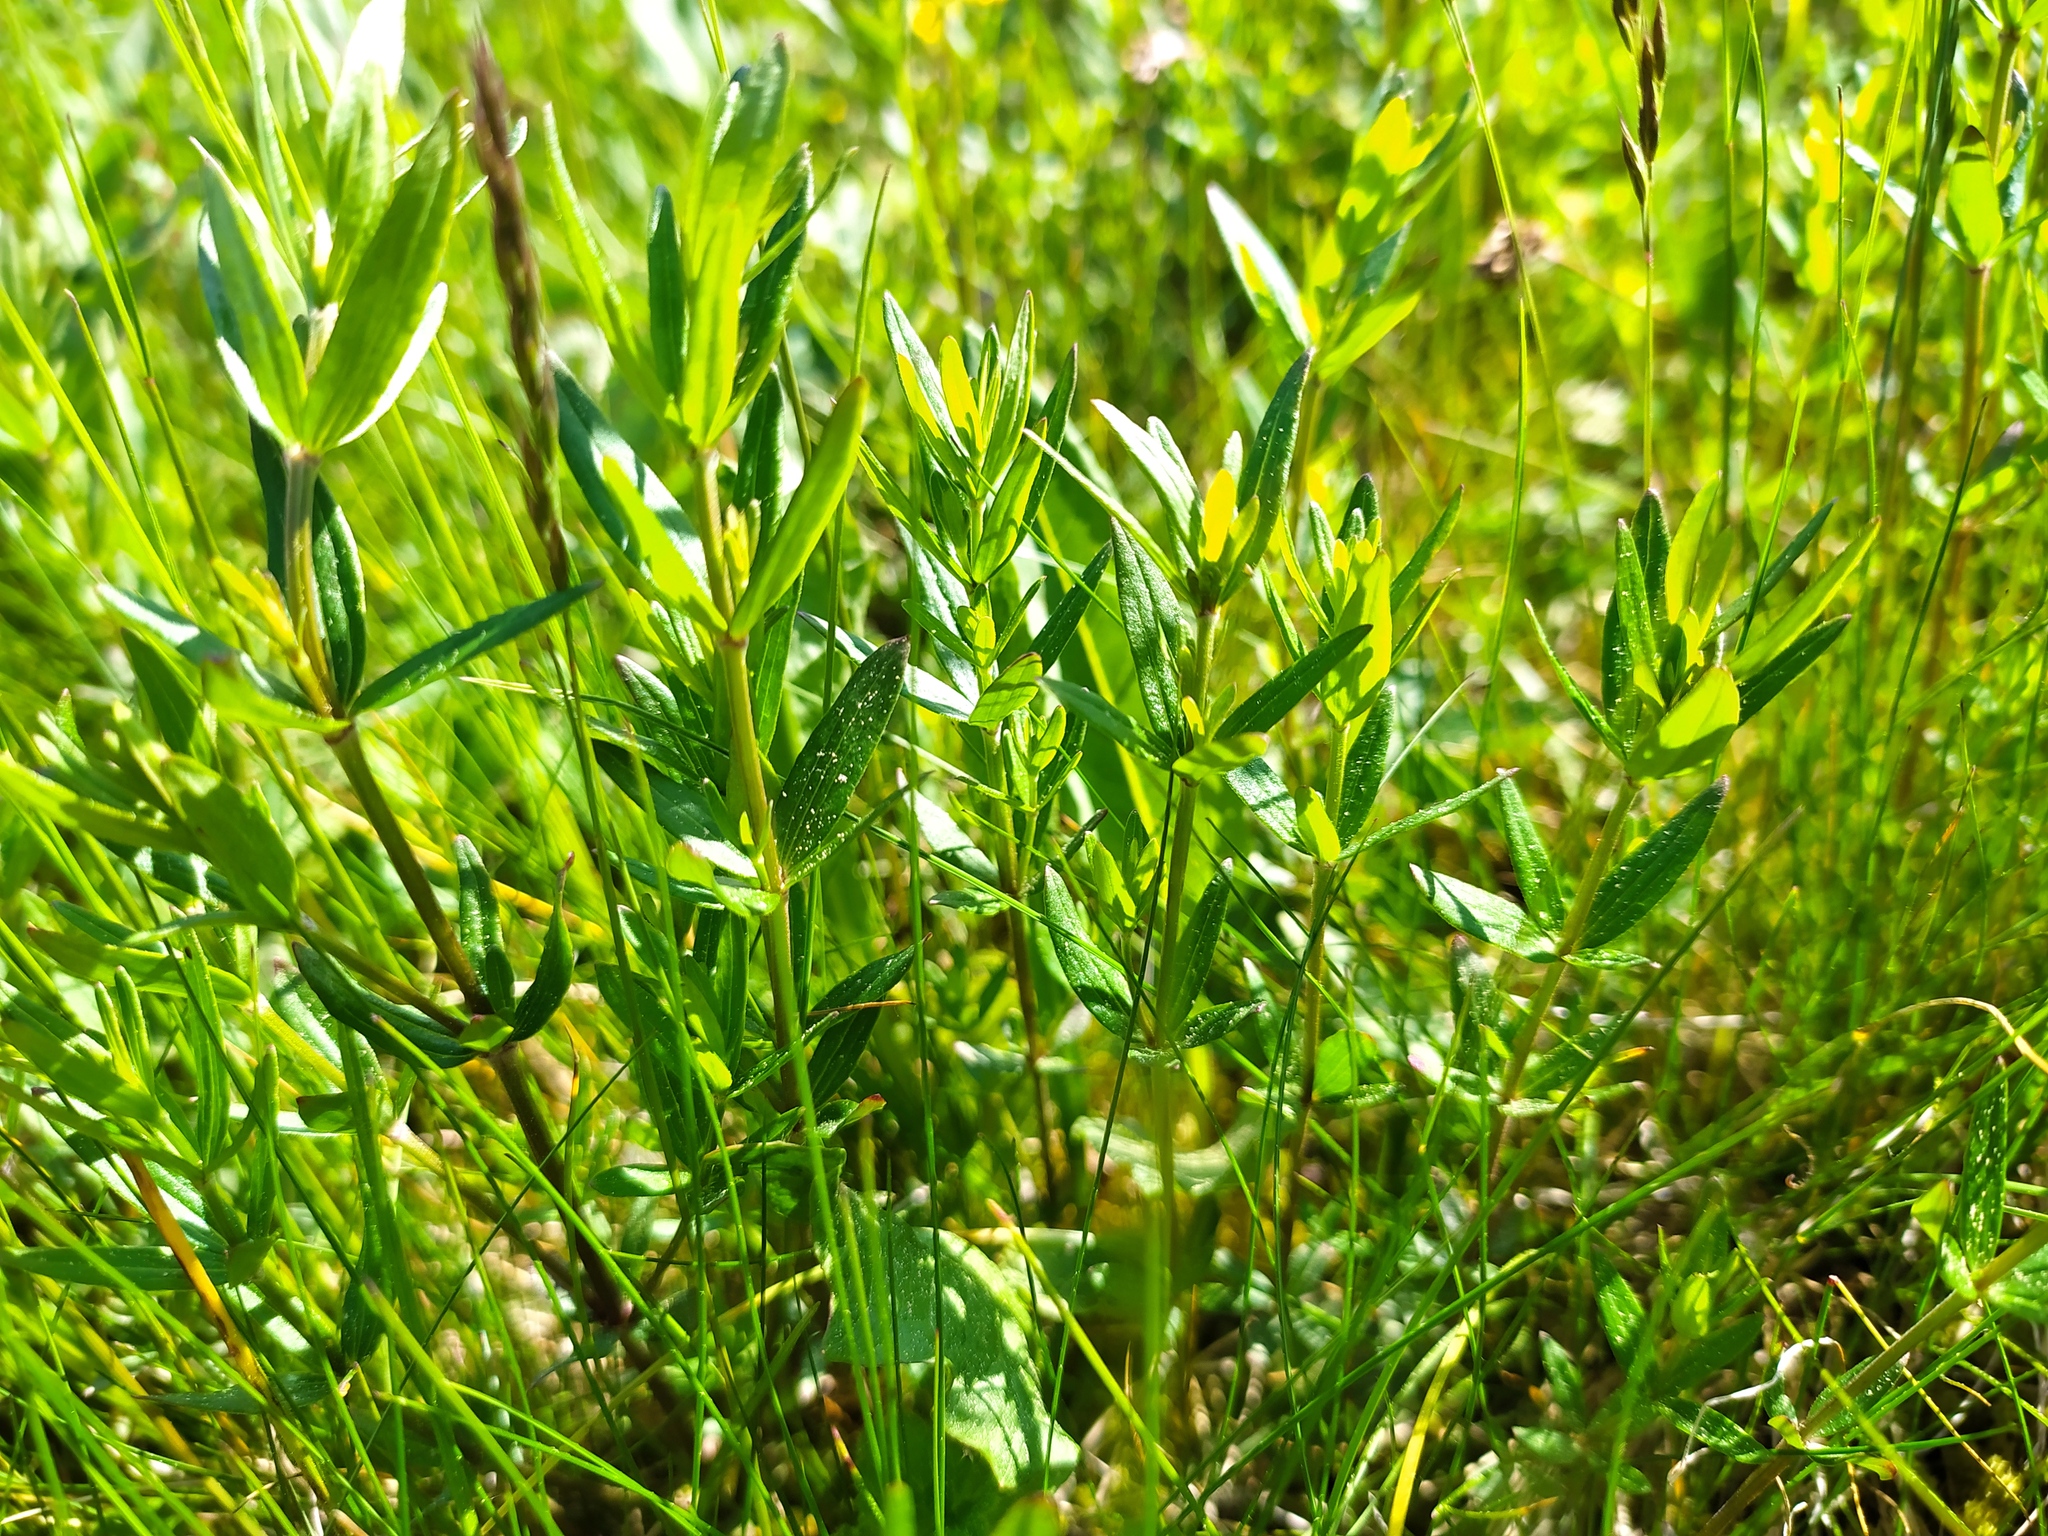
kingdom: Plantae
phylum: Tracheophyta
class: Magnoliopsida
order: Gentianales
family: Rubiaceae
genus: Galium
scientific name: Galium boreale
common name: Northern bedstraw
